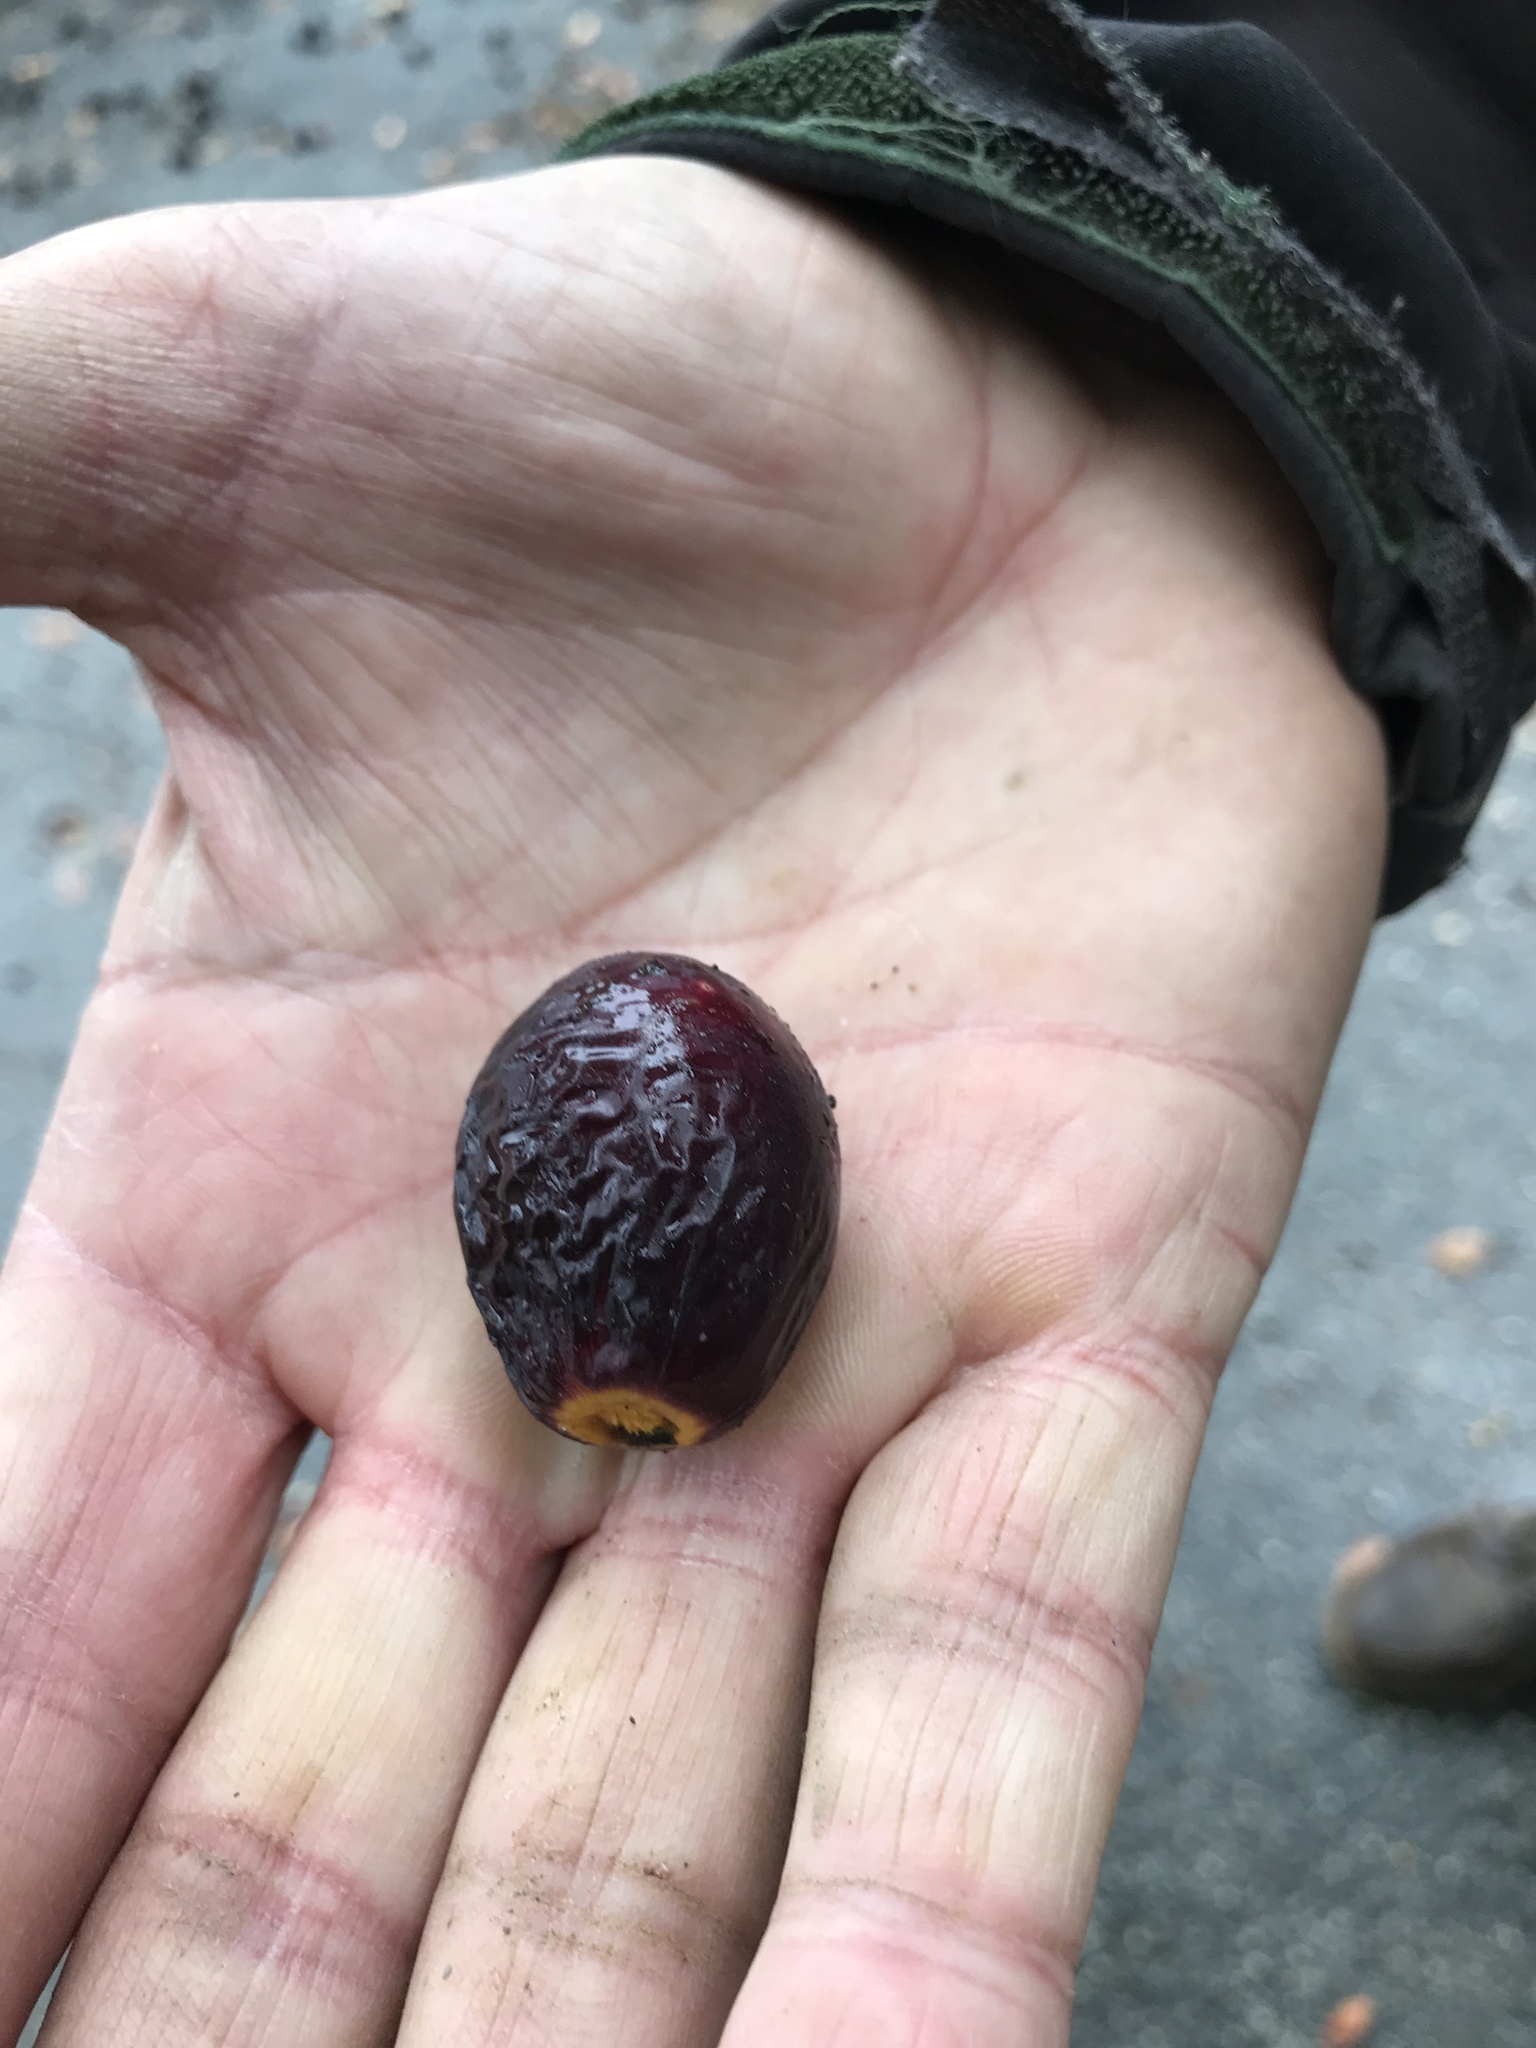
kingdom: Plantae
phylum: Tracheophyta
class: Magnoliopsida
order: Laurales
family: Lauraceae
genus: Umbellularia
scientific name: Umbellularia californica
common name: California bay
